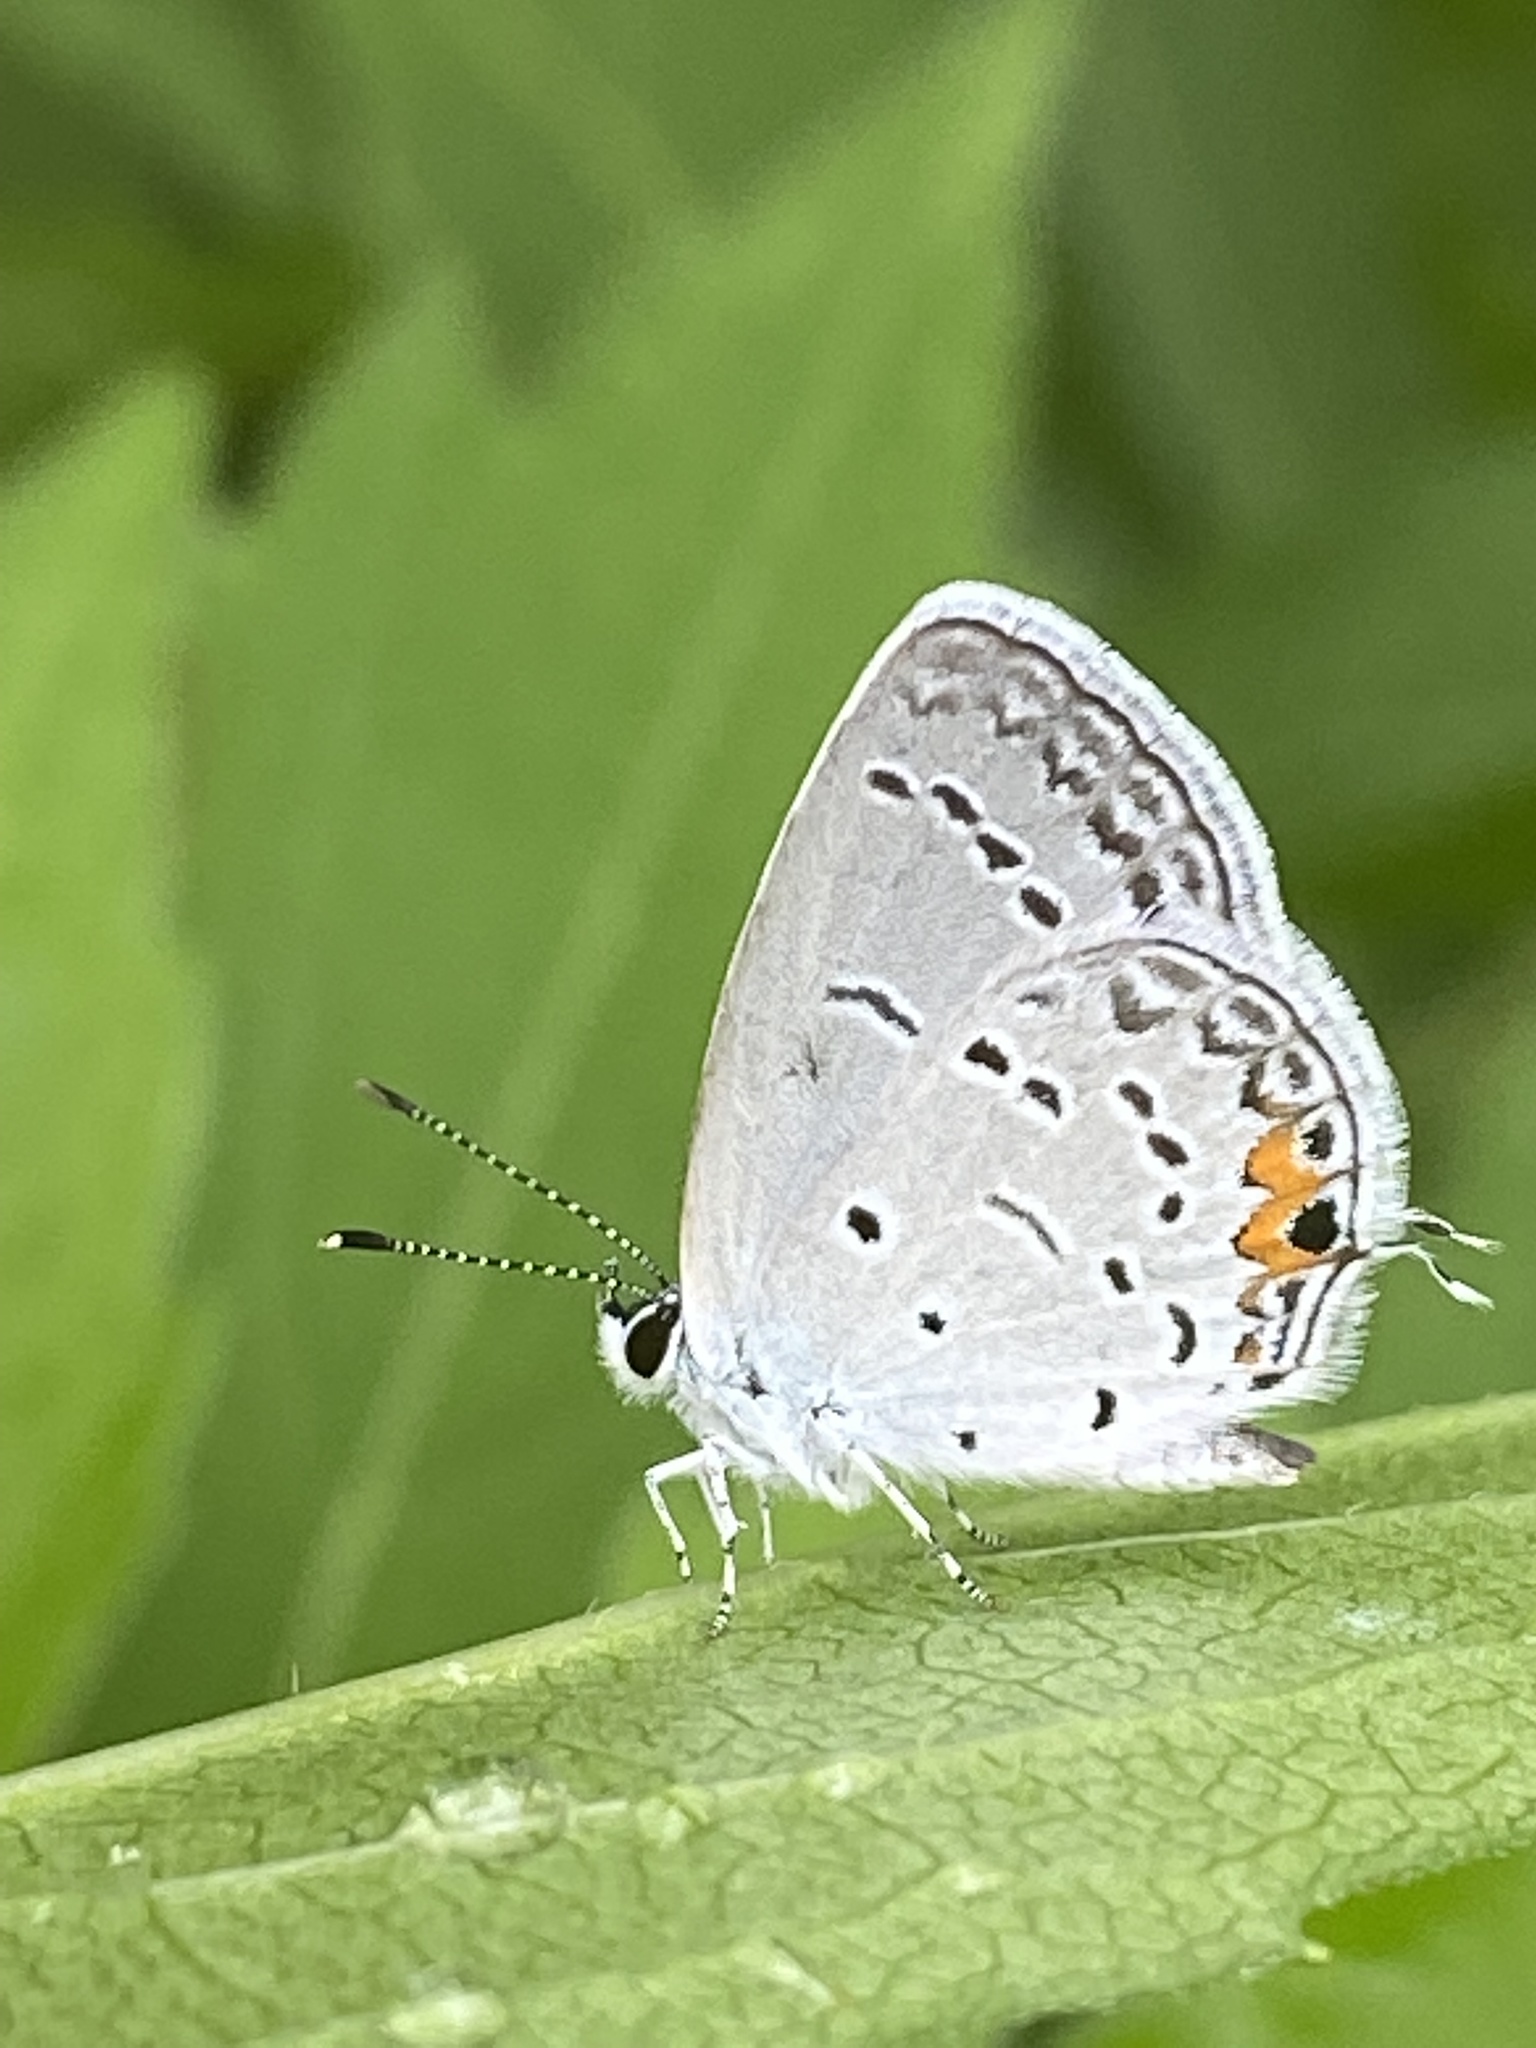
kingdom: Animalia
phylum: Arthropoda
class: Insecta
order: Lepidoptera
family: Lycaenidae
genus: Elkalyce
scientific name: Elkalyce comyntas
